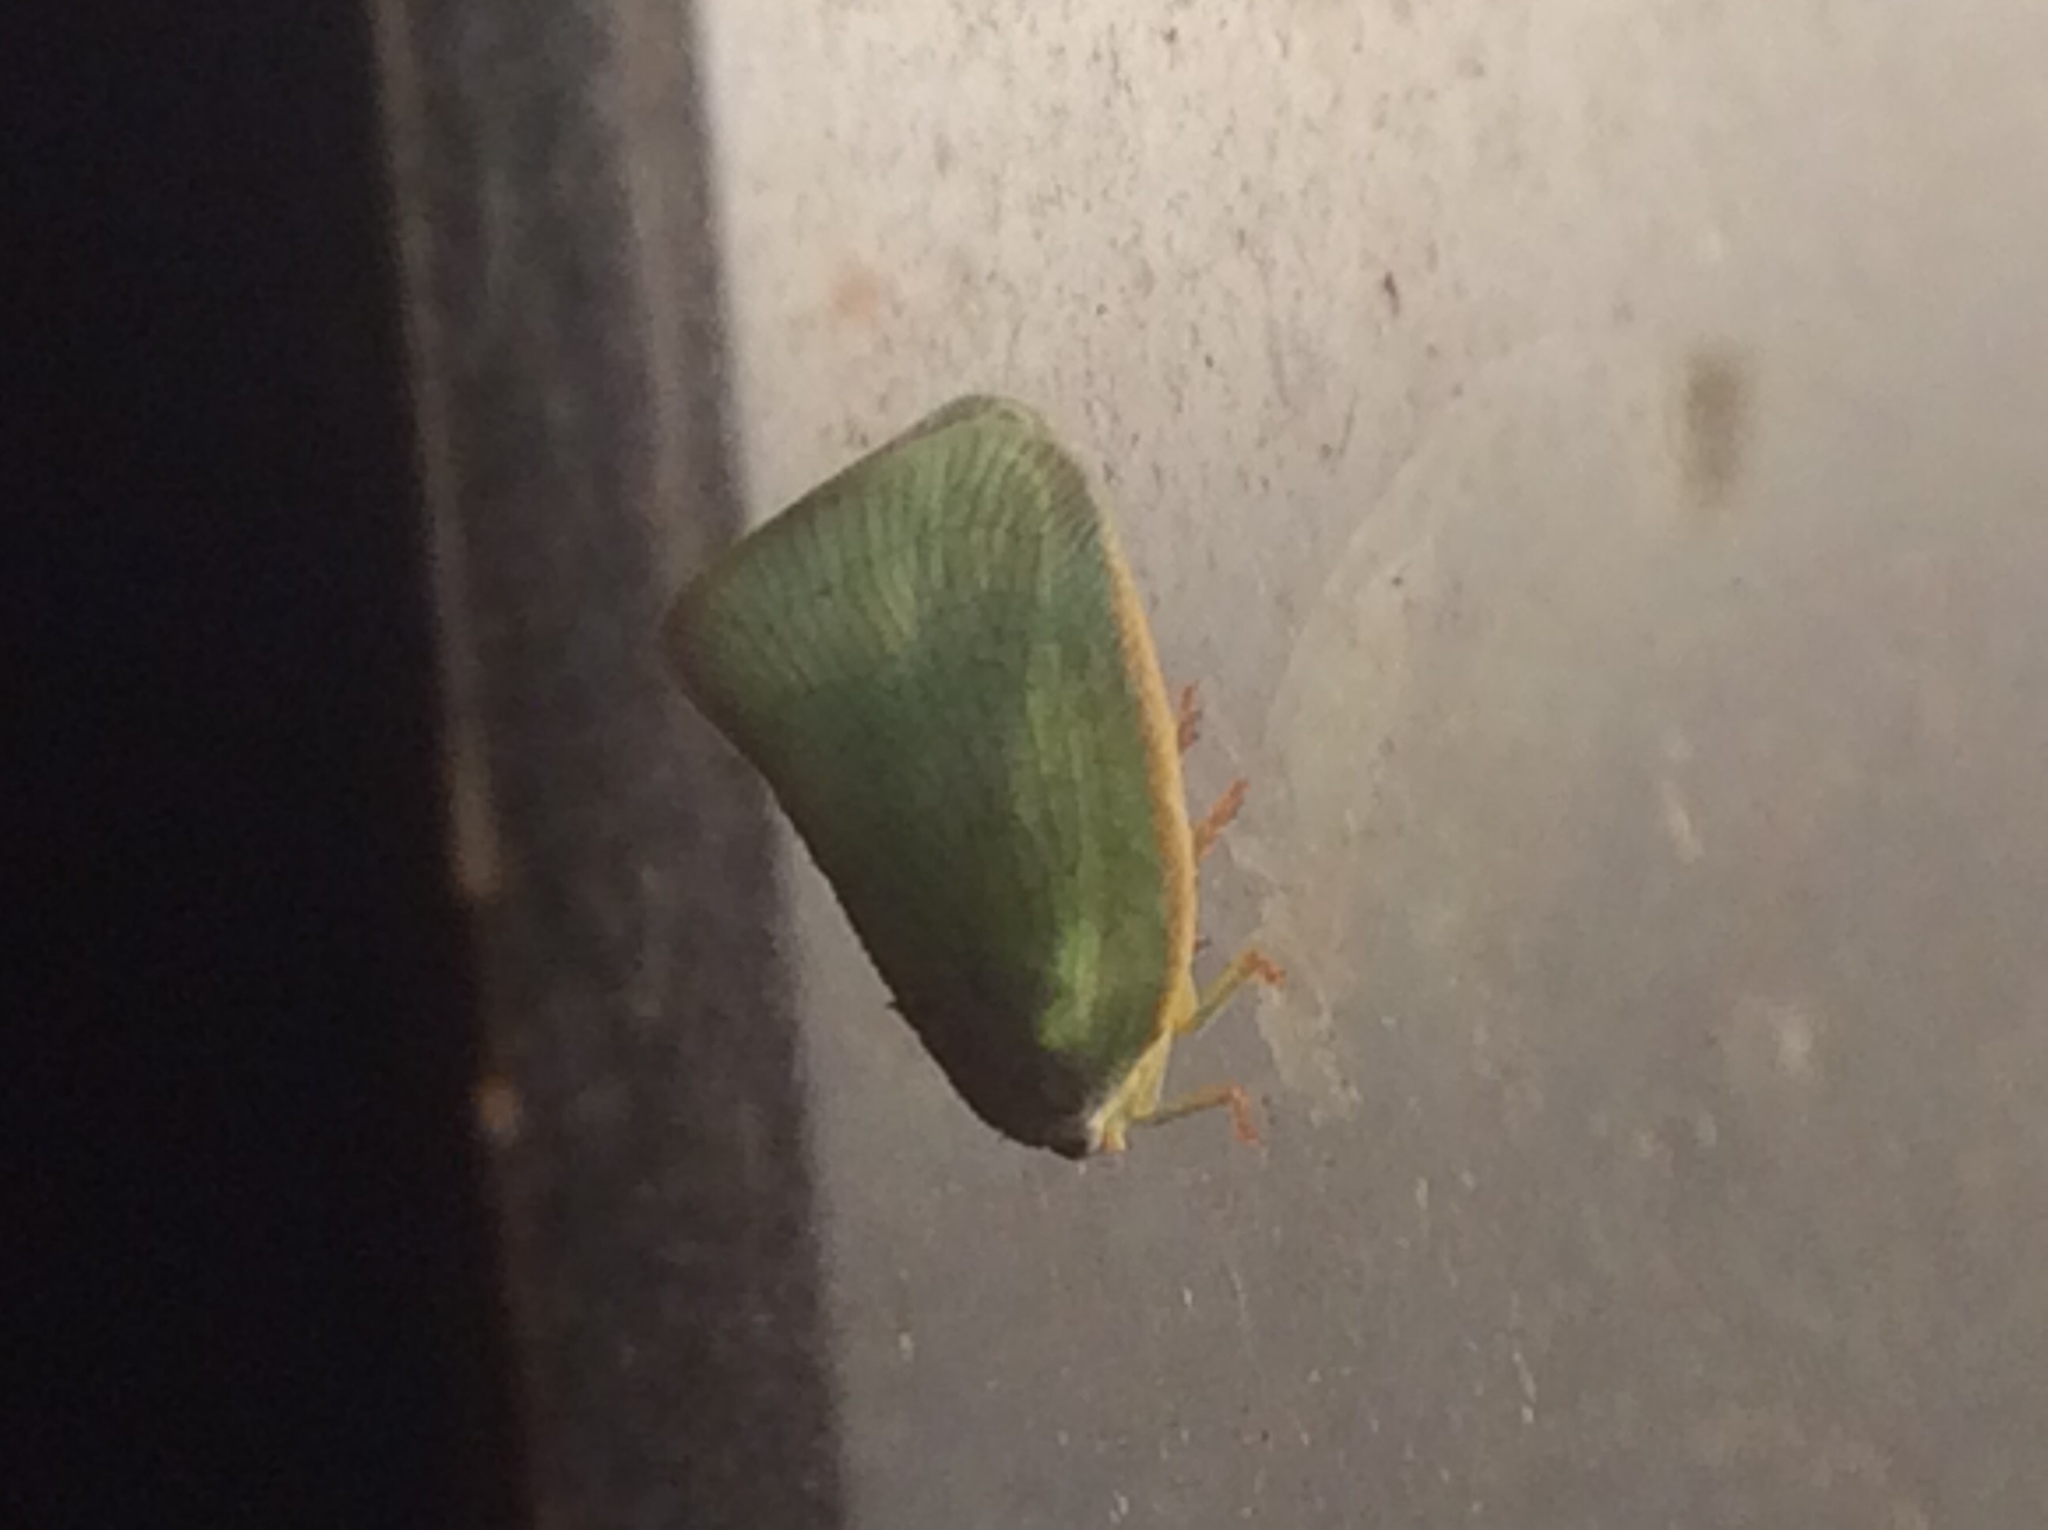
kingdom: Animalia
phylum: Arthropoda
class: Insecta
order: Hemiptera
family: Flatidae
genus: Flatormenis
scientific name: Flatormenis proxima
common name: Northern flatid planthopper
